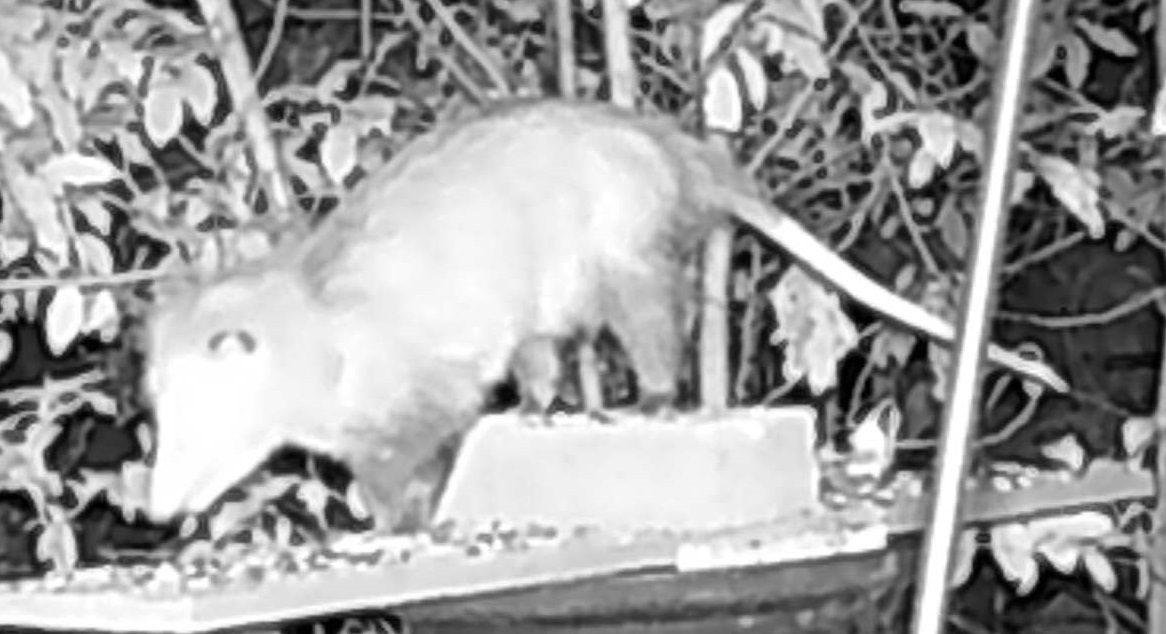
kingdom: Animalia
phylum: Chordata
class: Mammalia
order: Didelphimorphia
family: Didelphidae
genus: Didelphis
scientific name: Didelphis virginiana
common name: Virginia opossum
